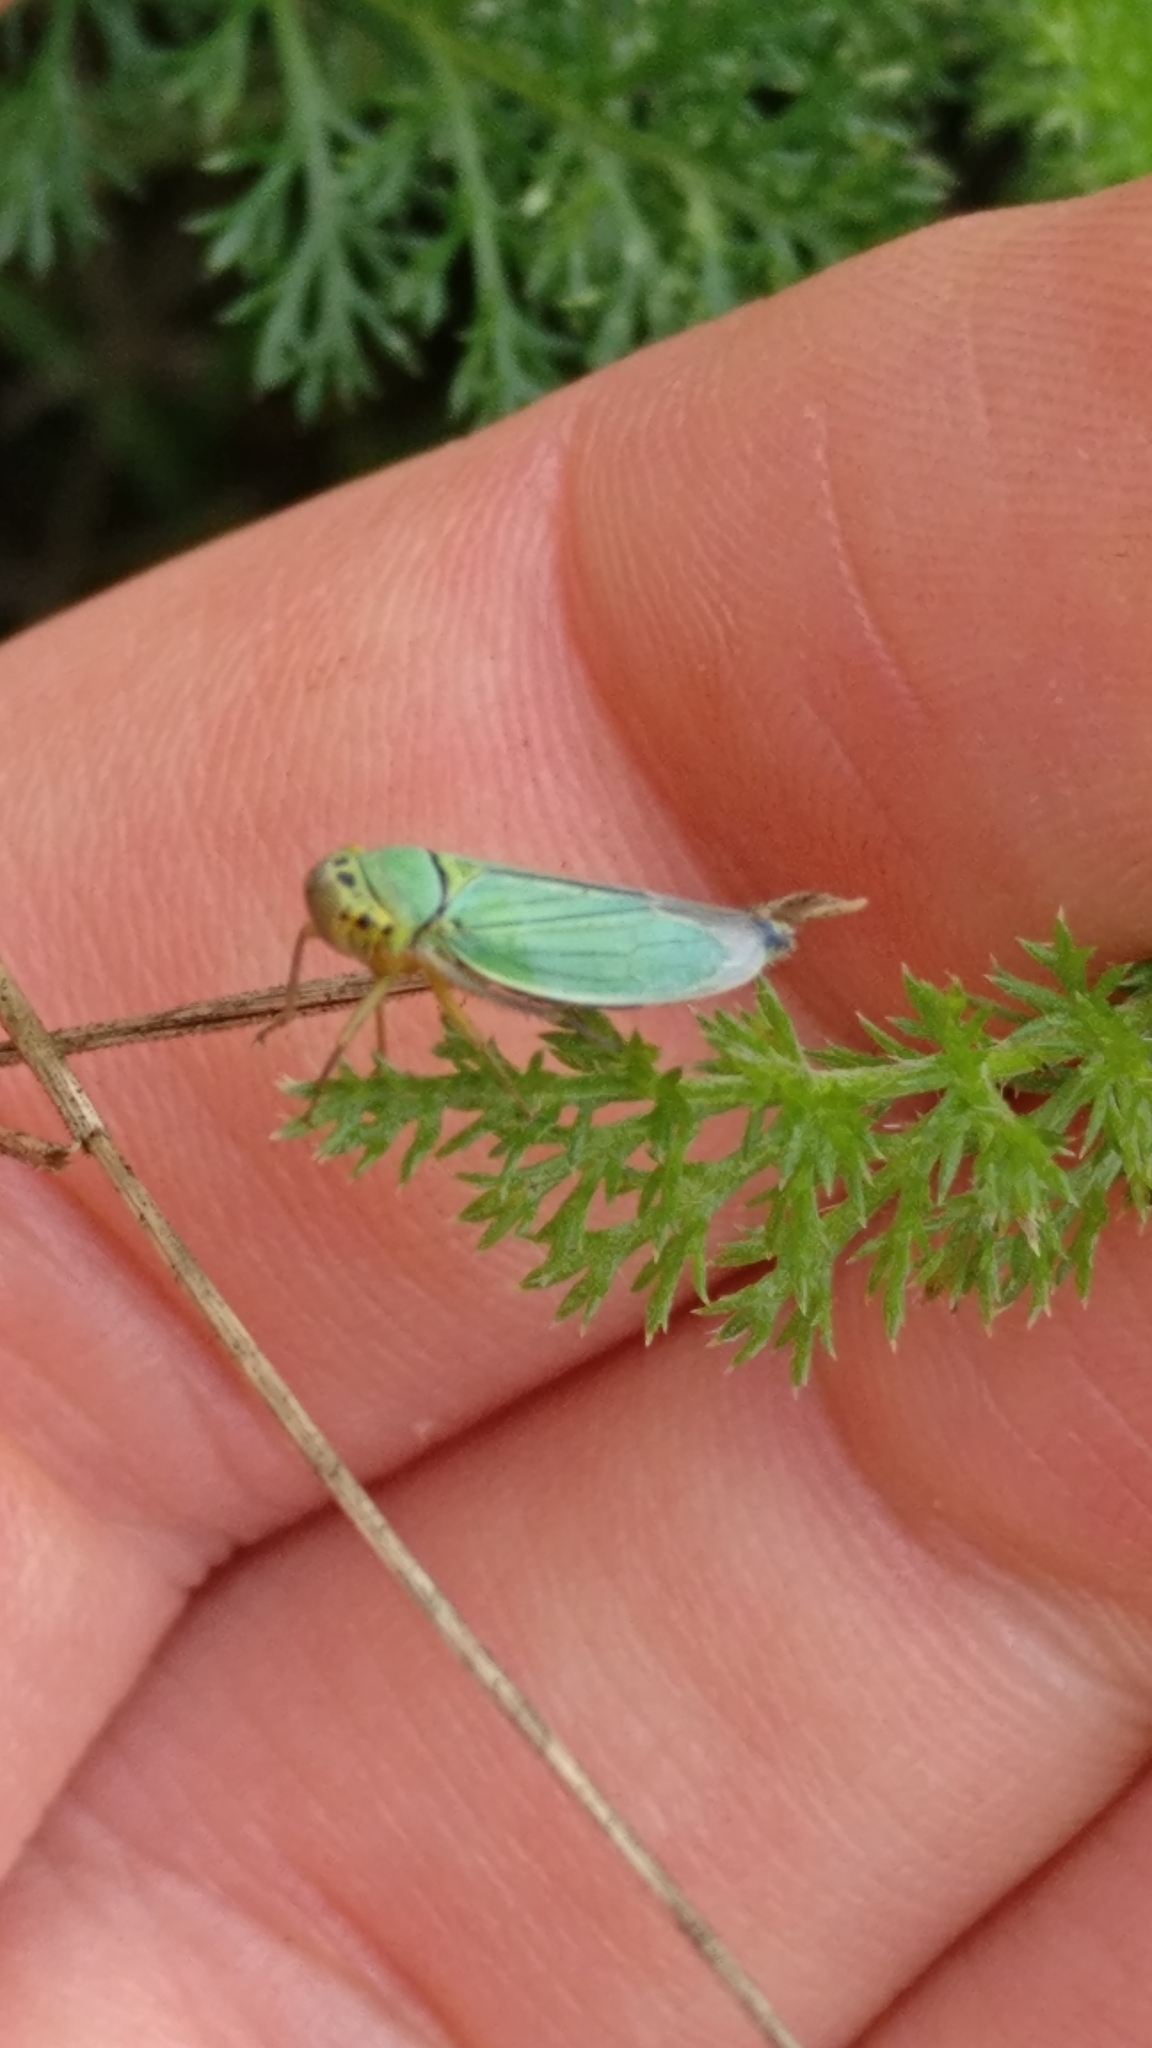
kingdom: Animalia
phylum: Arthropoda
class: Insecta
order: Hemiptera
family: Cicadellidae
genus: Cicadella
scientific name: Cicadella viridis
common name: Leafhopper
